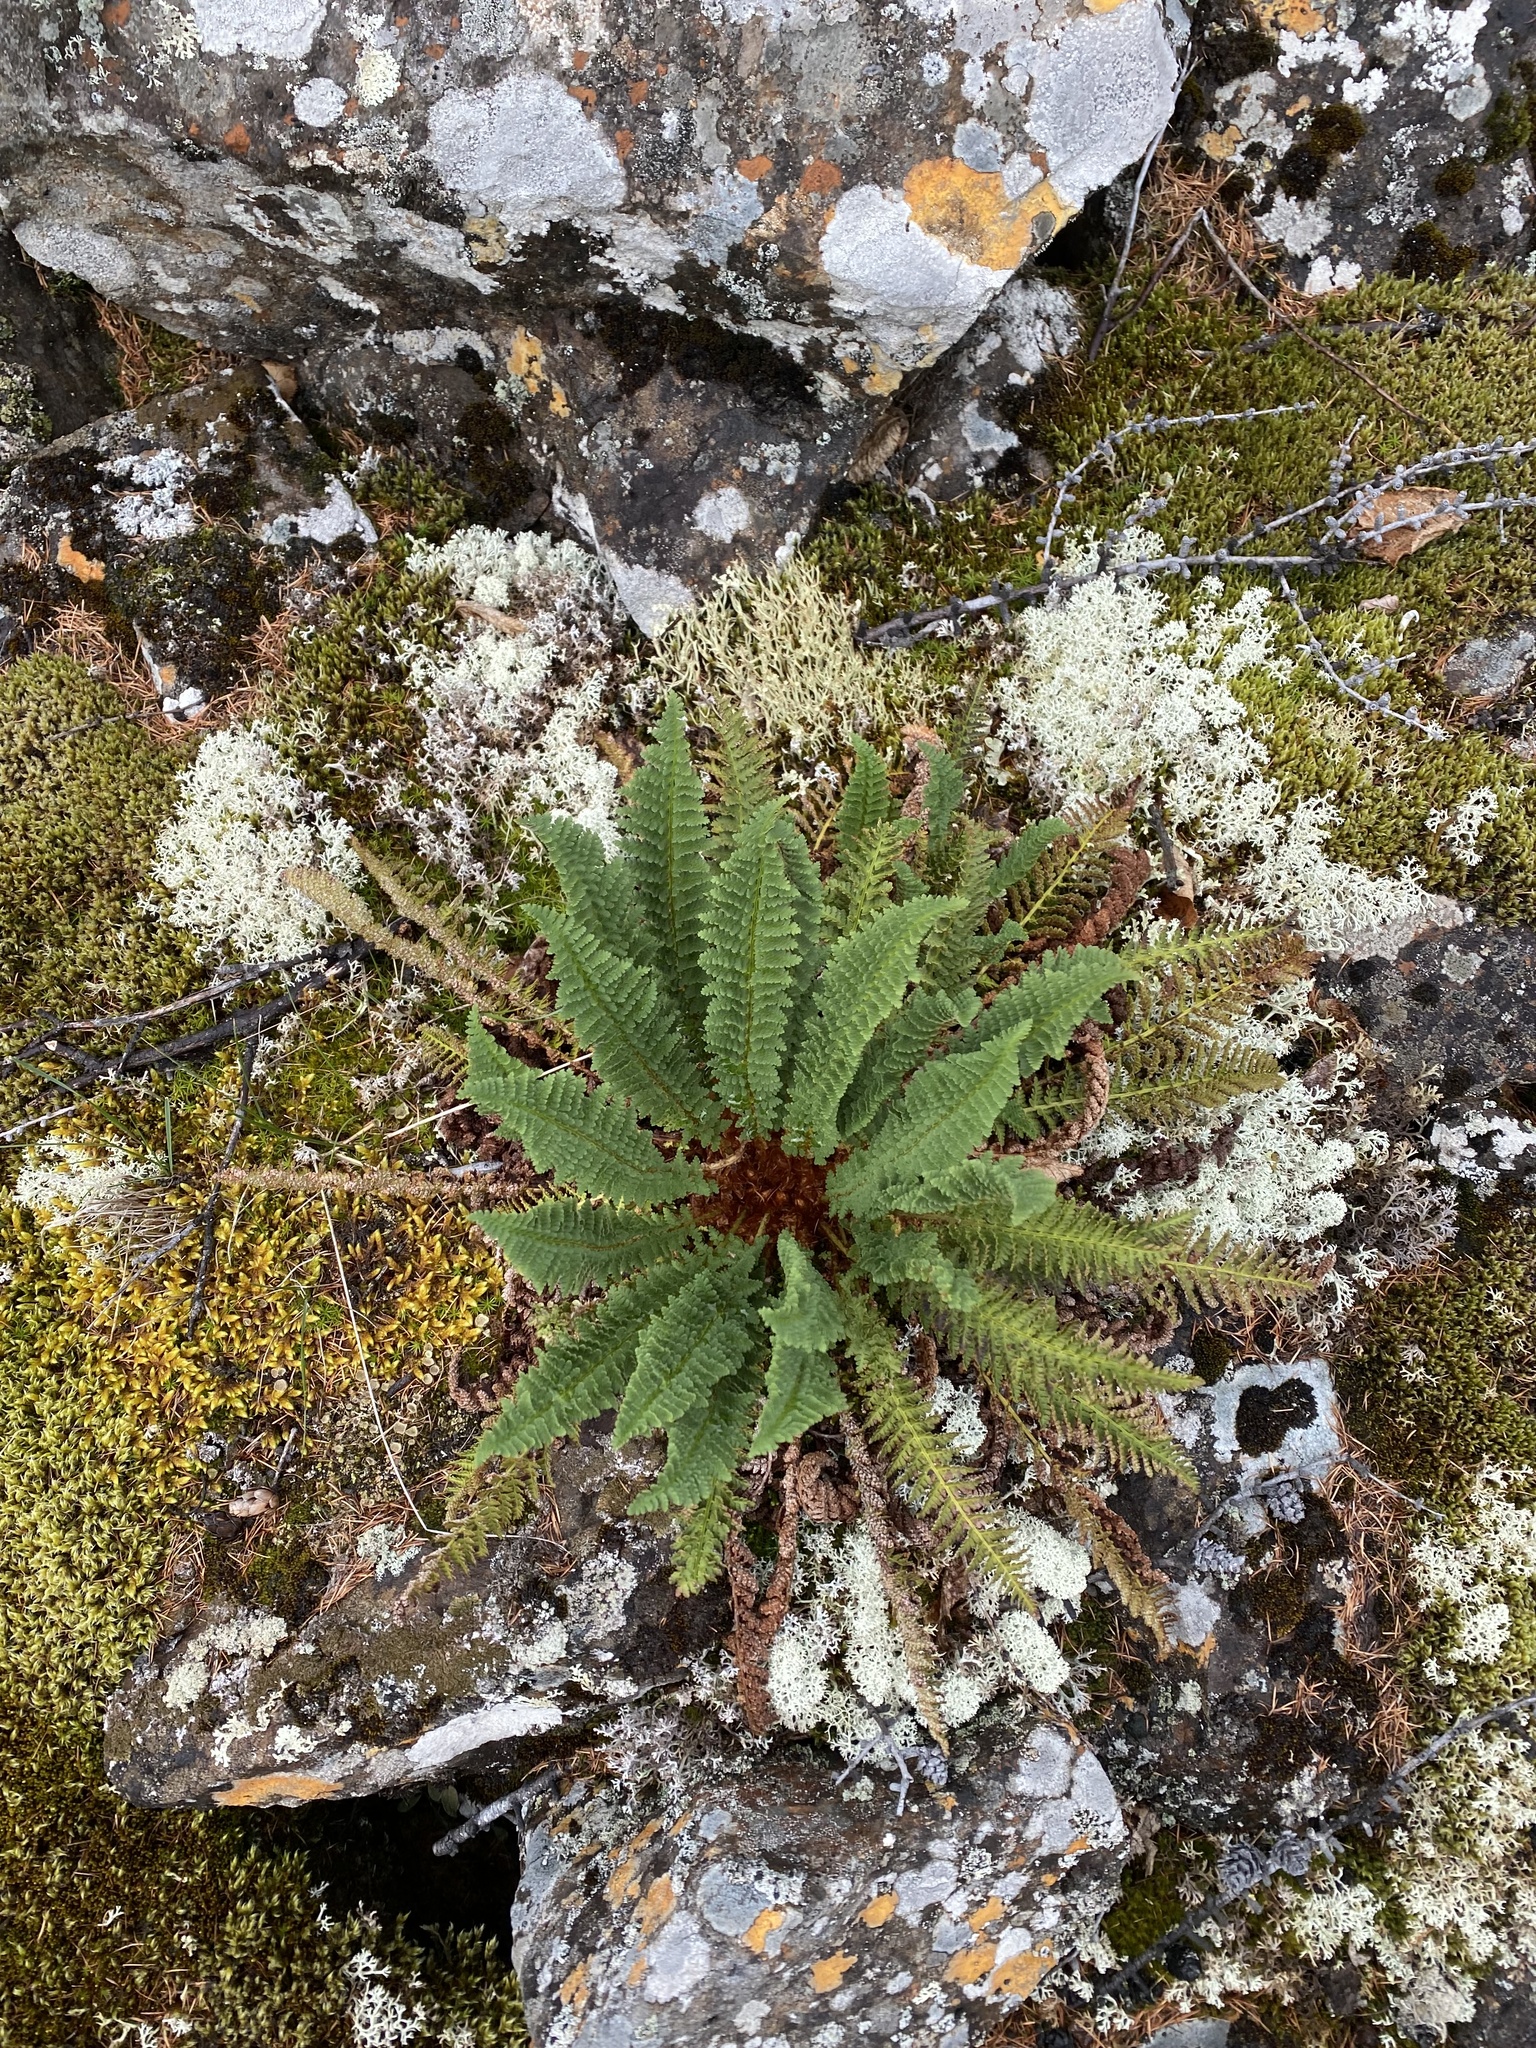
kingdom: Plantae
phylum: Tracheophyta
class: Polypodiopsida
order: Polypodiales
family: Dryopteridaceae
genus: Dryopteris
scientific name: Dryopteris fragrans
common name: Fragrant wood fern
